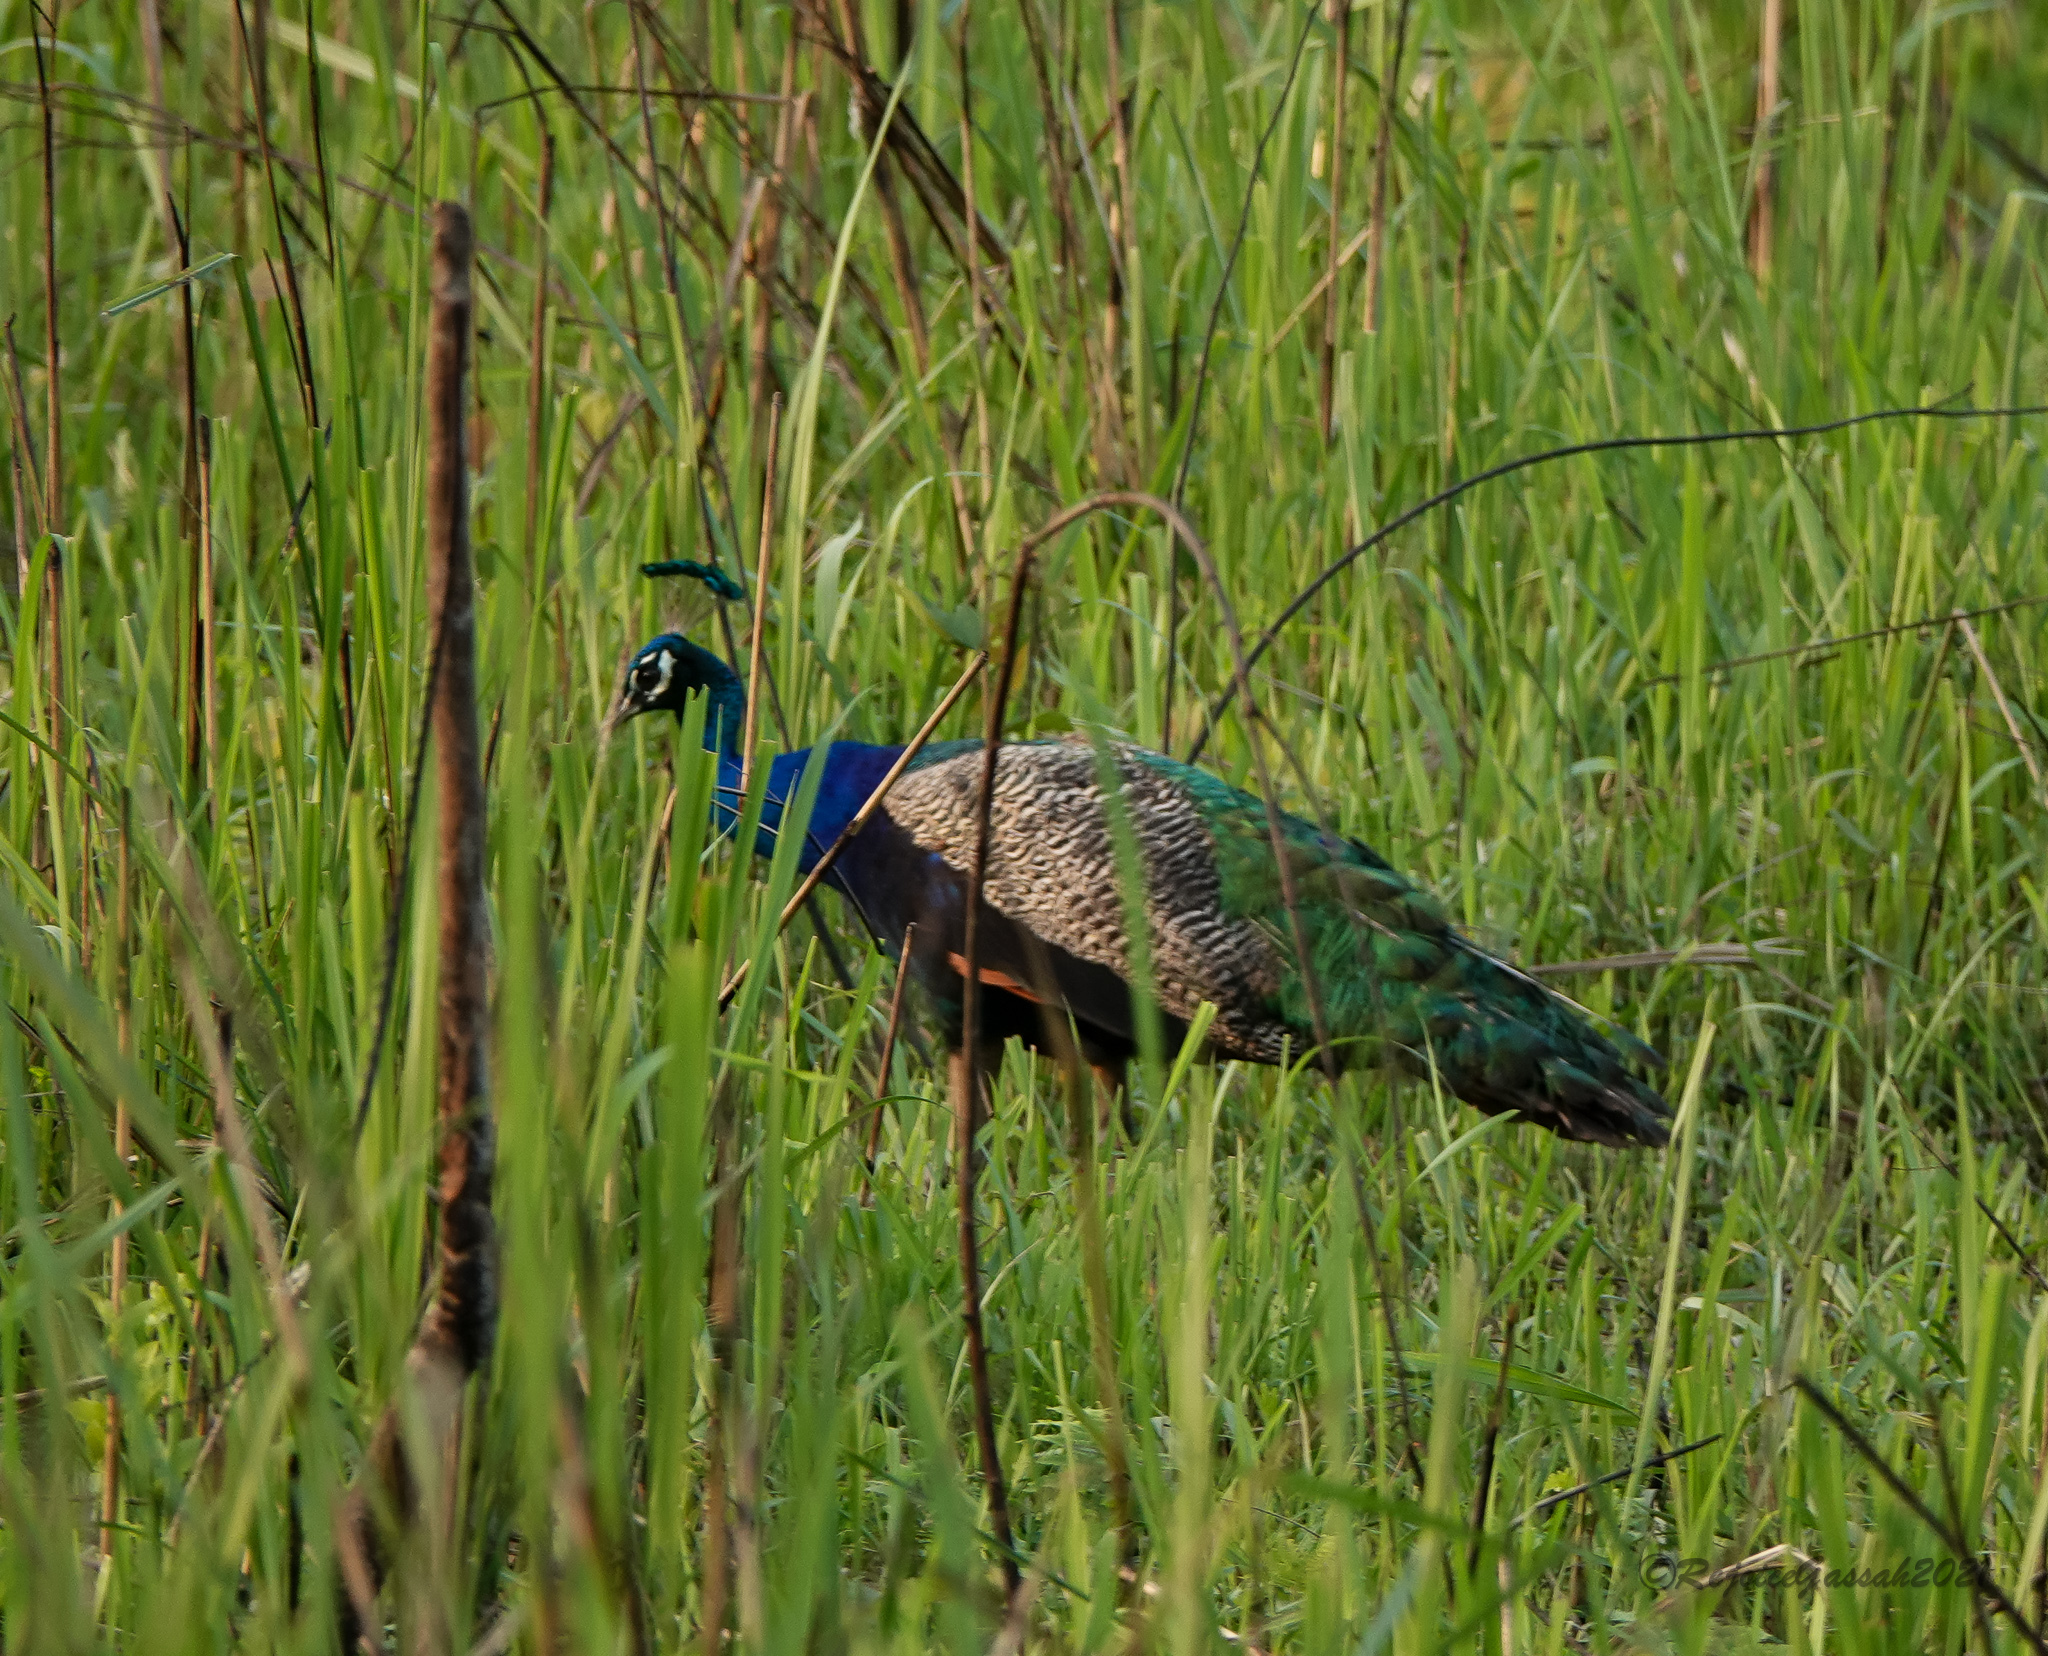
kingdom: Animalia
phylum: Chordata
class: Aves
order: Galliformes
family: Phasianidae
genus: Pavo
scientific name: Pavo cristatus
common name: Indian peafowl
